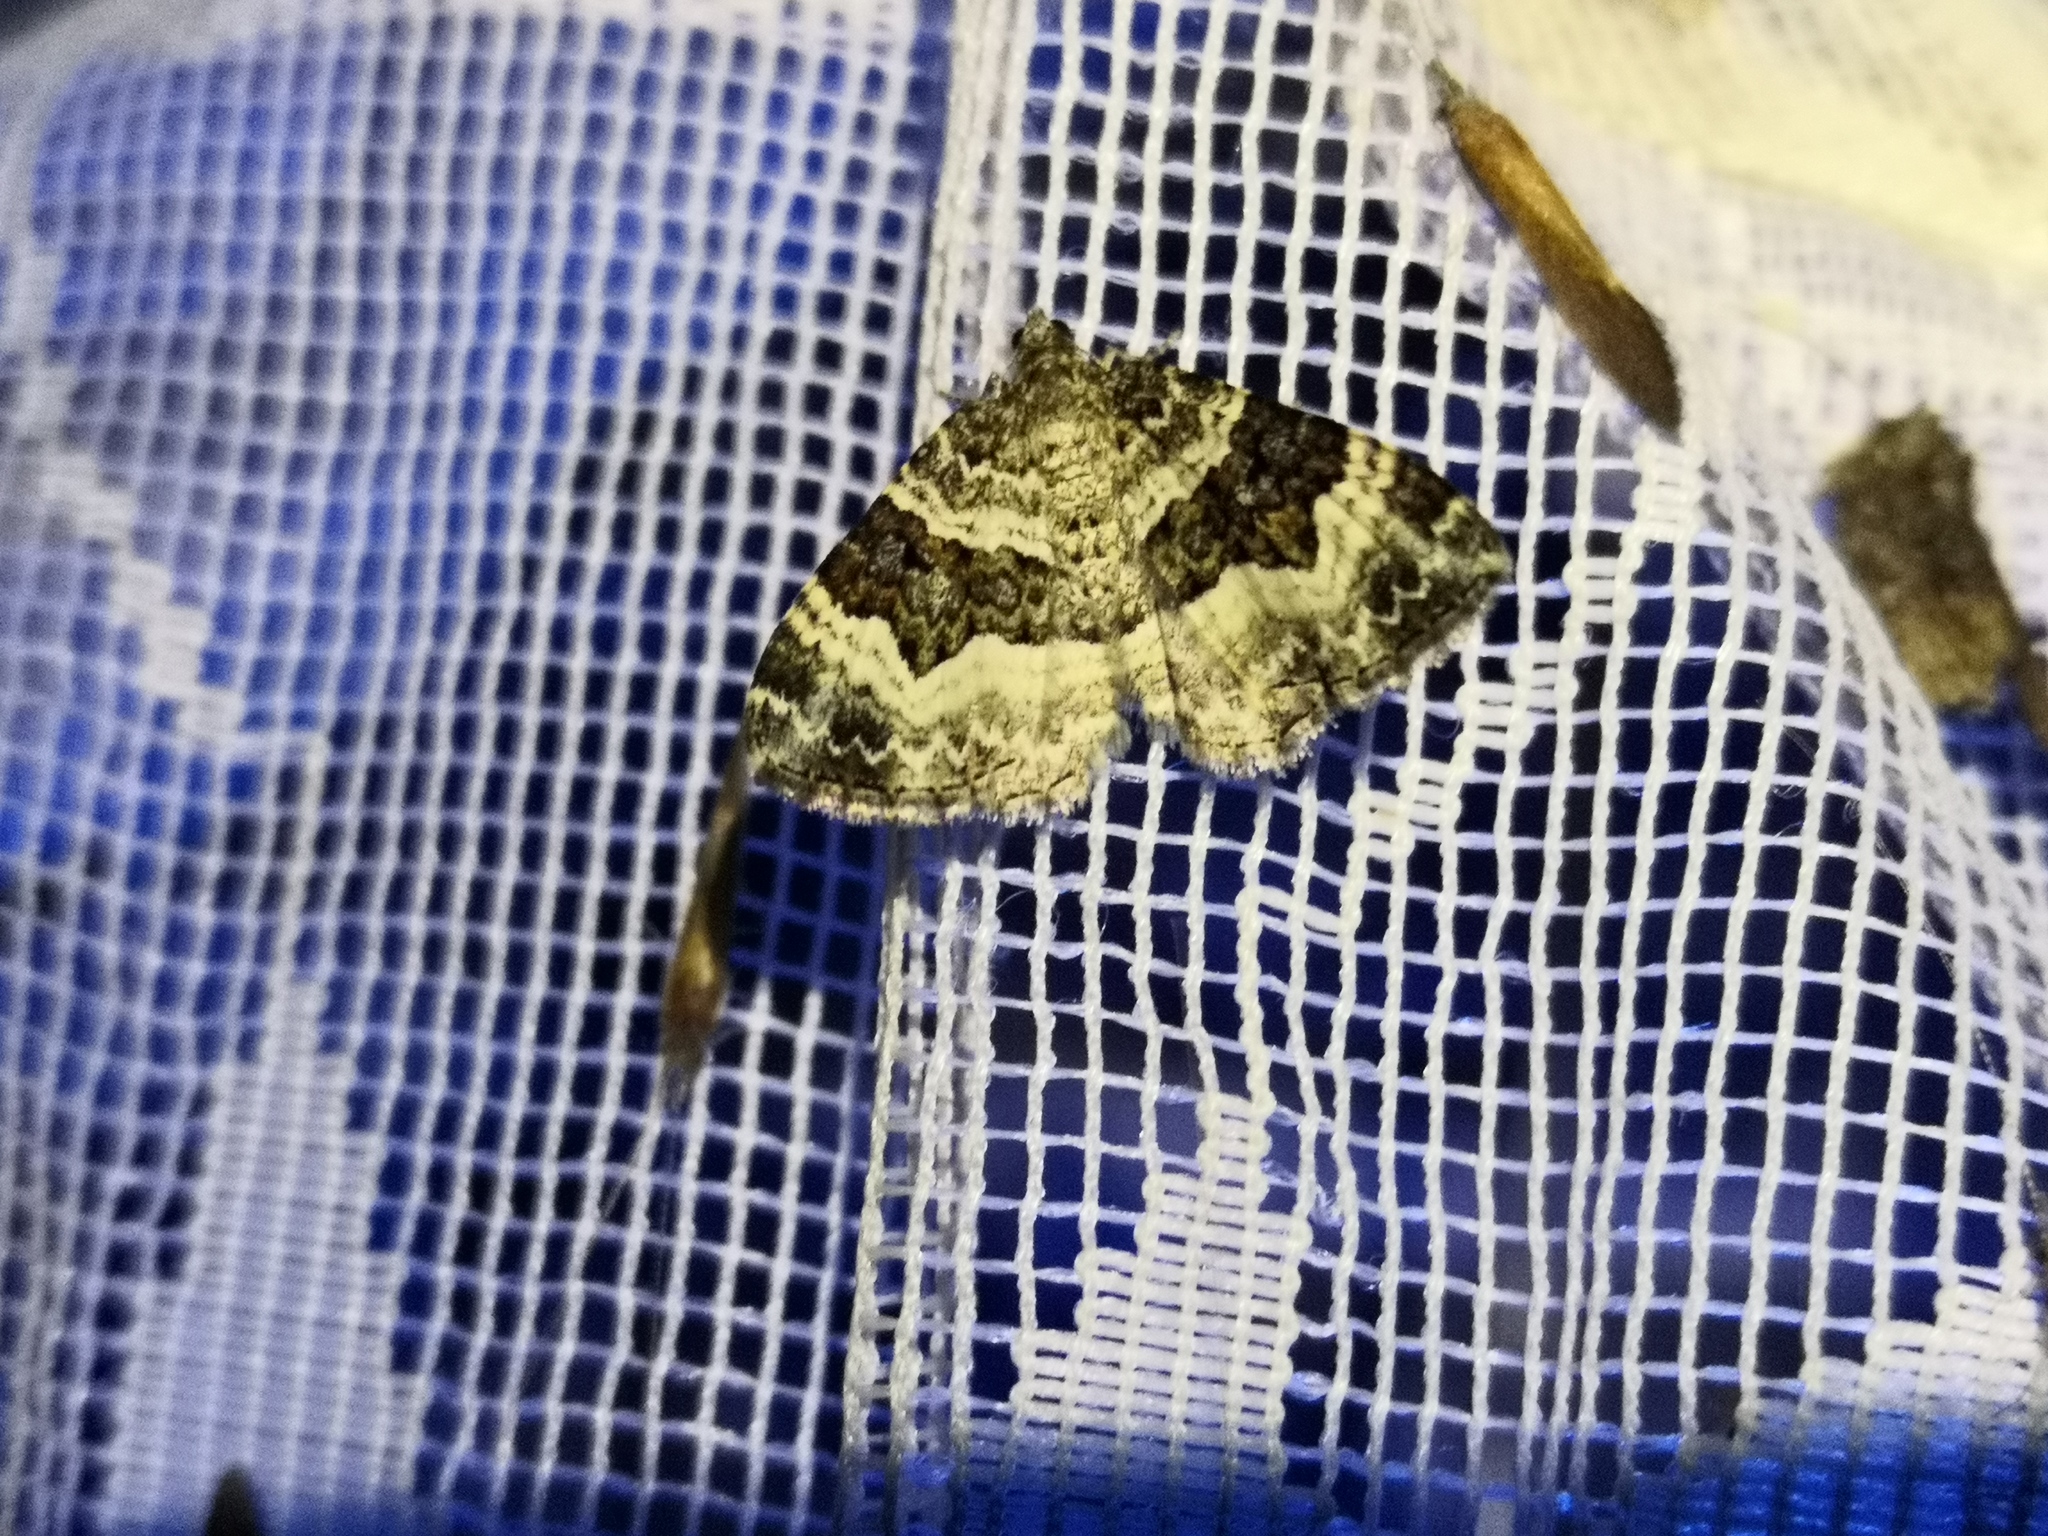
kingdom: Animalia
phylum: Arthropoda
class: Insecta
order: Lepidoptera
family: Geometridae
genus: Epirrhoe
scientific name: Epirrhoe alternata
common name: Common carpet
